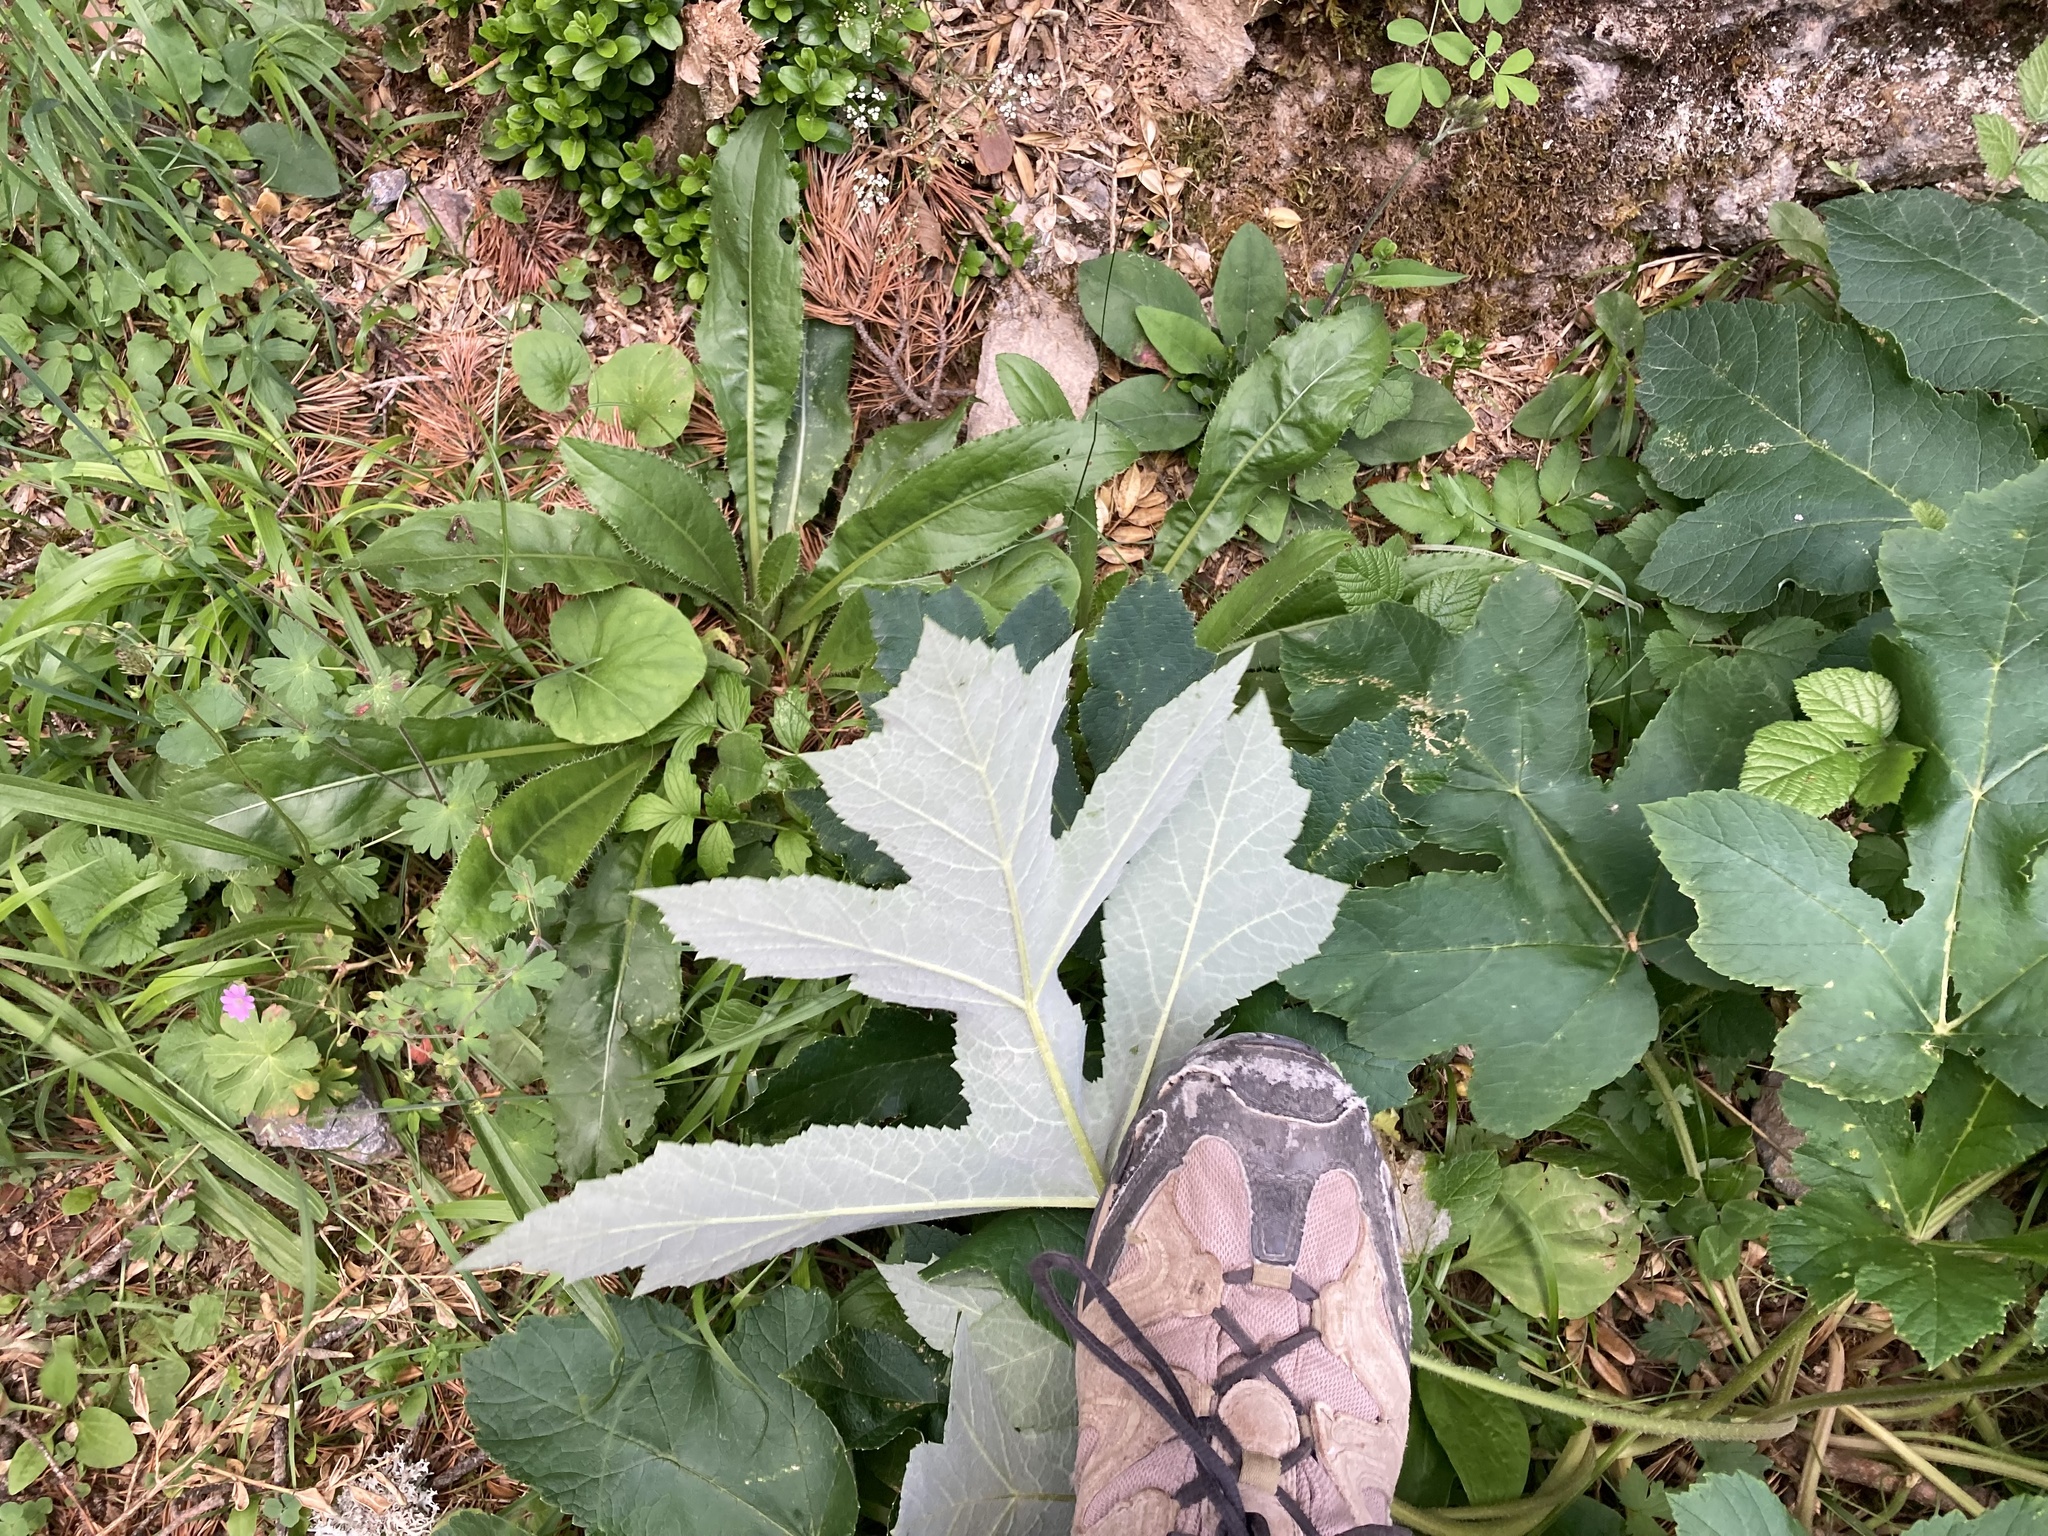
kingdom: Plantae
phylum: Tracheophyta
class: Magnoliopsida
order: Apiales
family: Apiaceae
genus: Heracleum
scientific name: Heracleum sphondylium
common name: Hogweed
